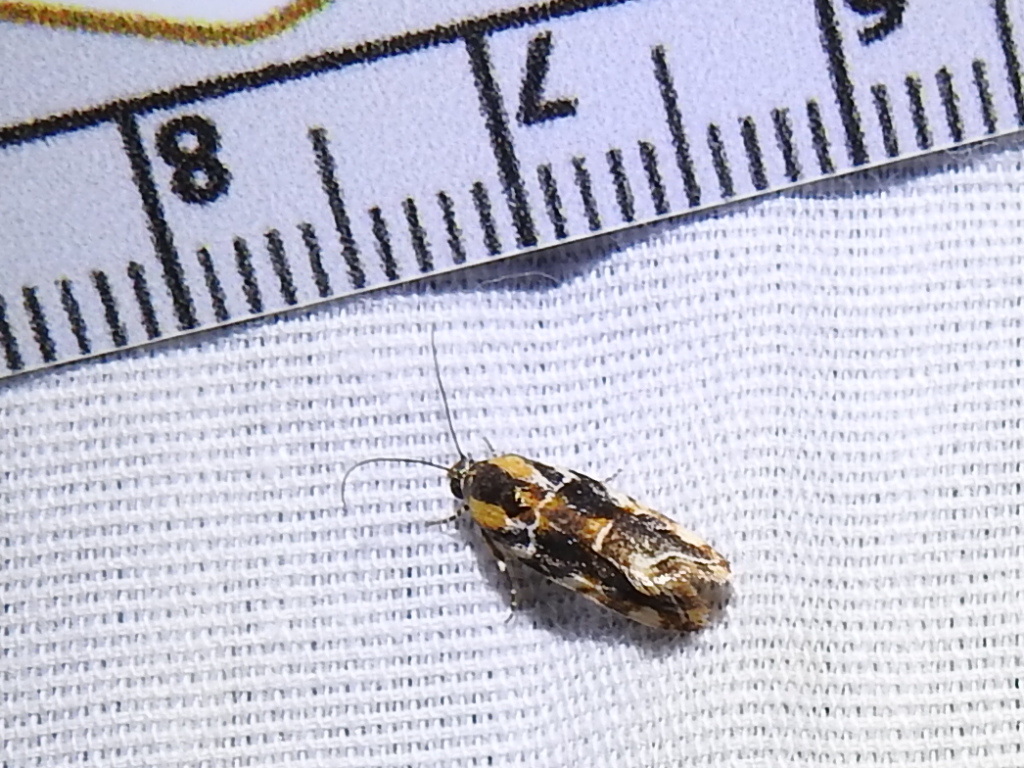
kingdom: Animalia
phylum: Arthropoda
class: Insecta
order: Lepidoptera
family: Noctuidae
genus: Spragueia
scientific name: Spragueia jaguaralis
